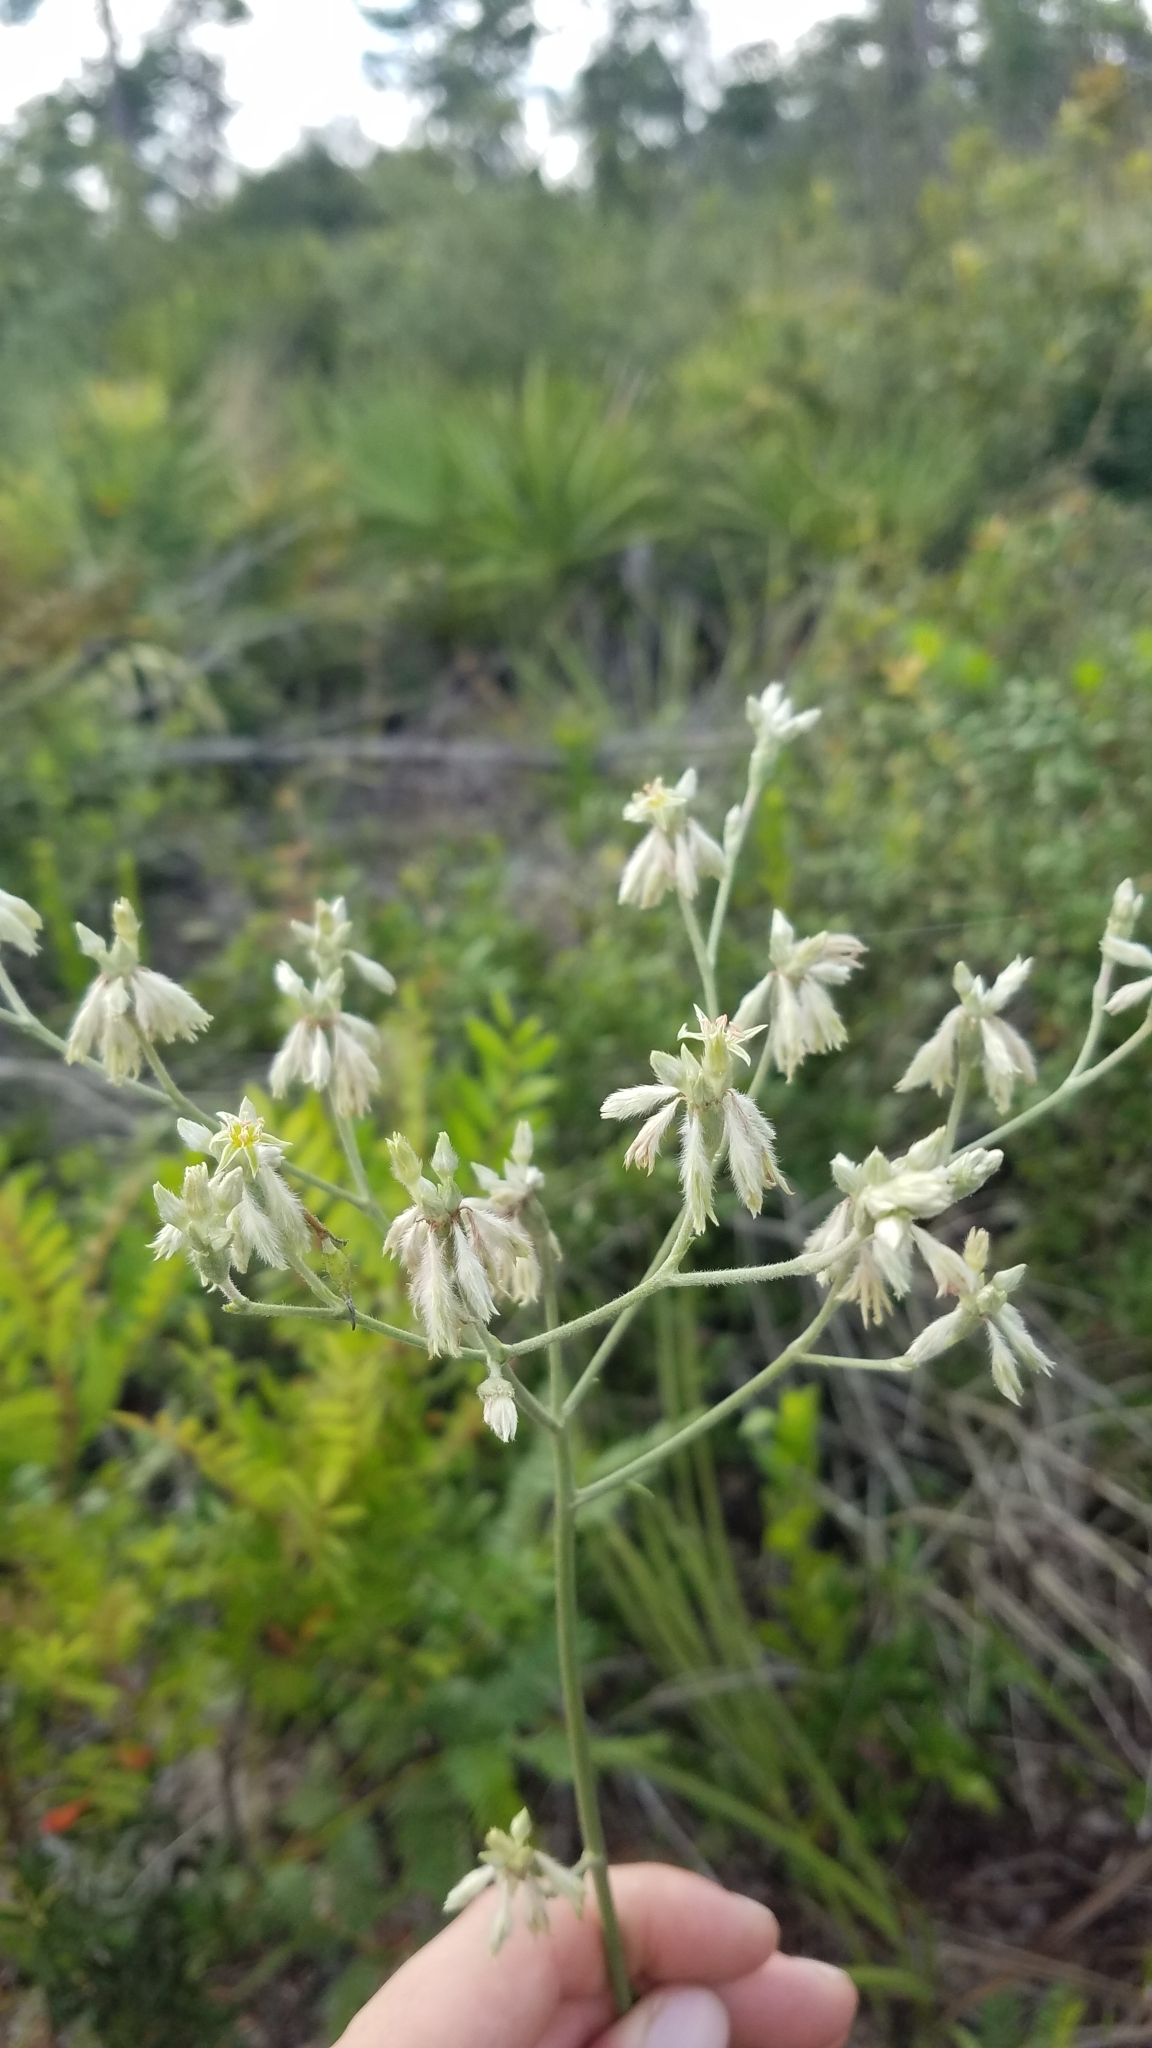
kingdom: Plantae
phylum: Tracheophyta
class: Magnoliopsida
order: Caryophyllales
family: Polygonaceae
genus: Eriogonum
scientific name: Eriogonum longifolium
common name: Longleaf wild buckwheat
